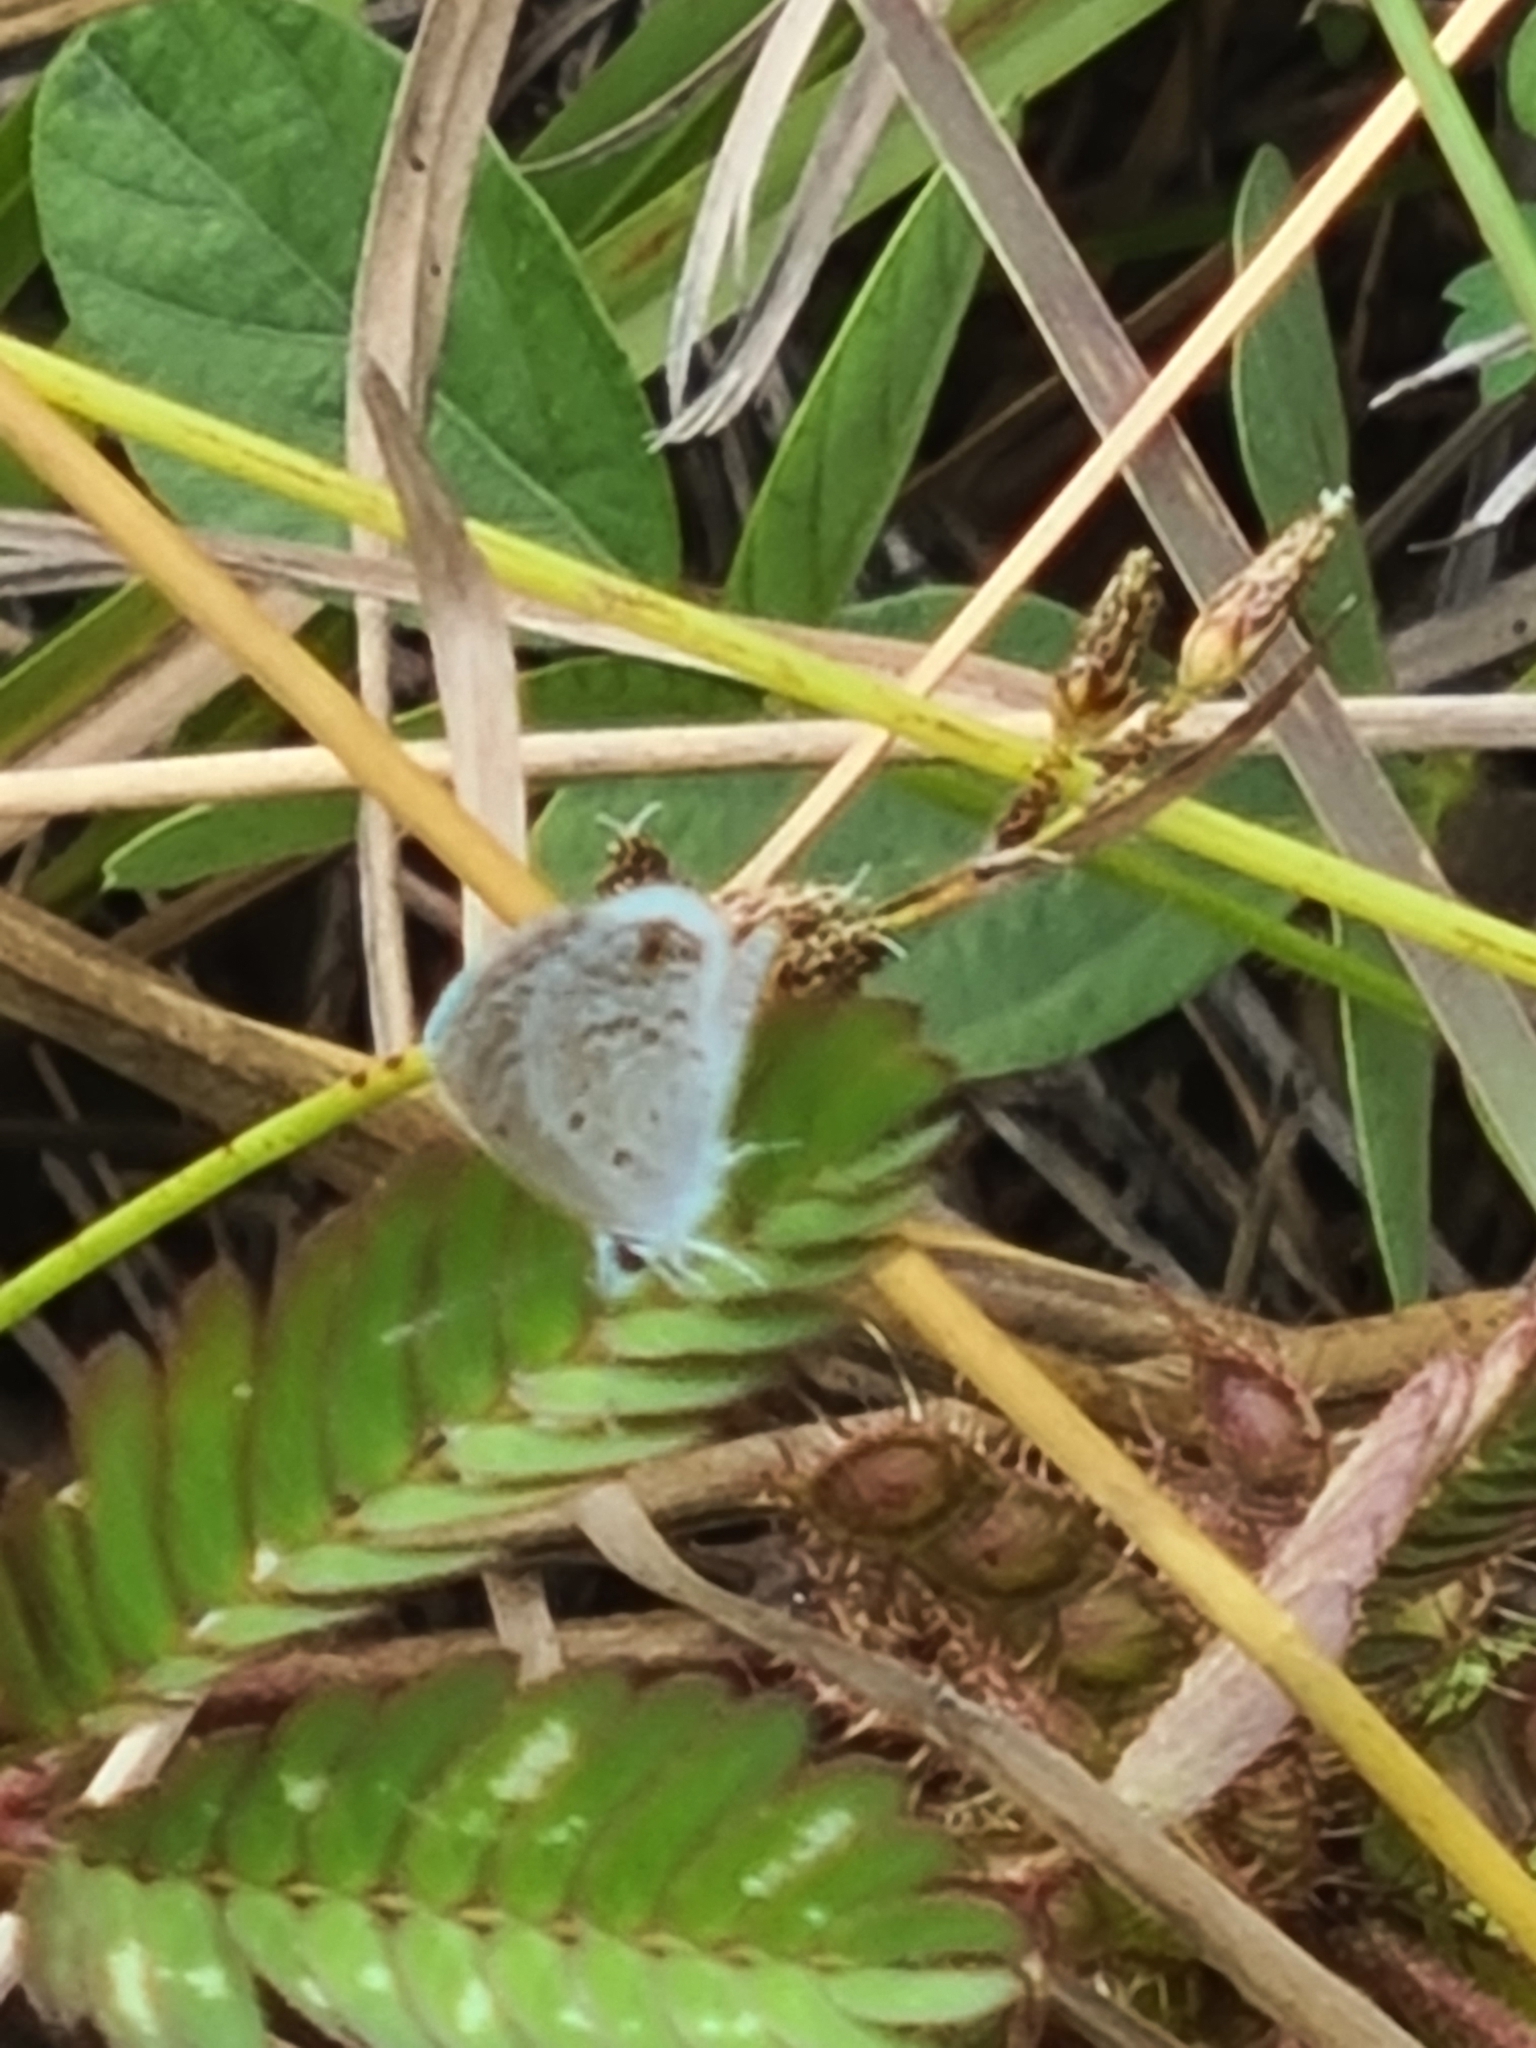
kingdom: Animalia
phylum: Arthropoda
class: Insecta
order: Lepidoptera
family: Lycaenidae
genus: Hemiargus
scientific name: Hemiargus hanno
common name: Common blue
